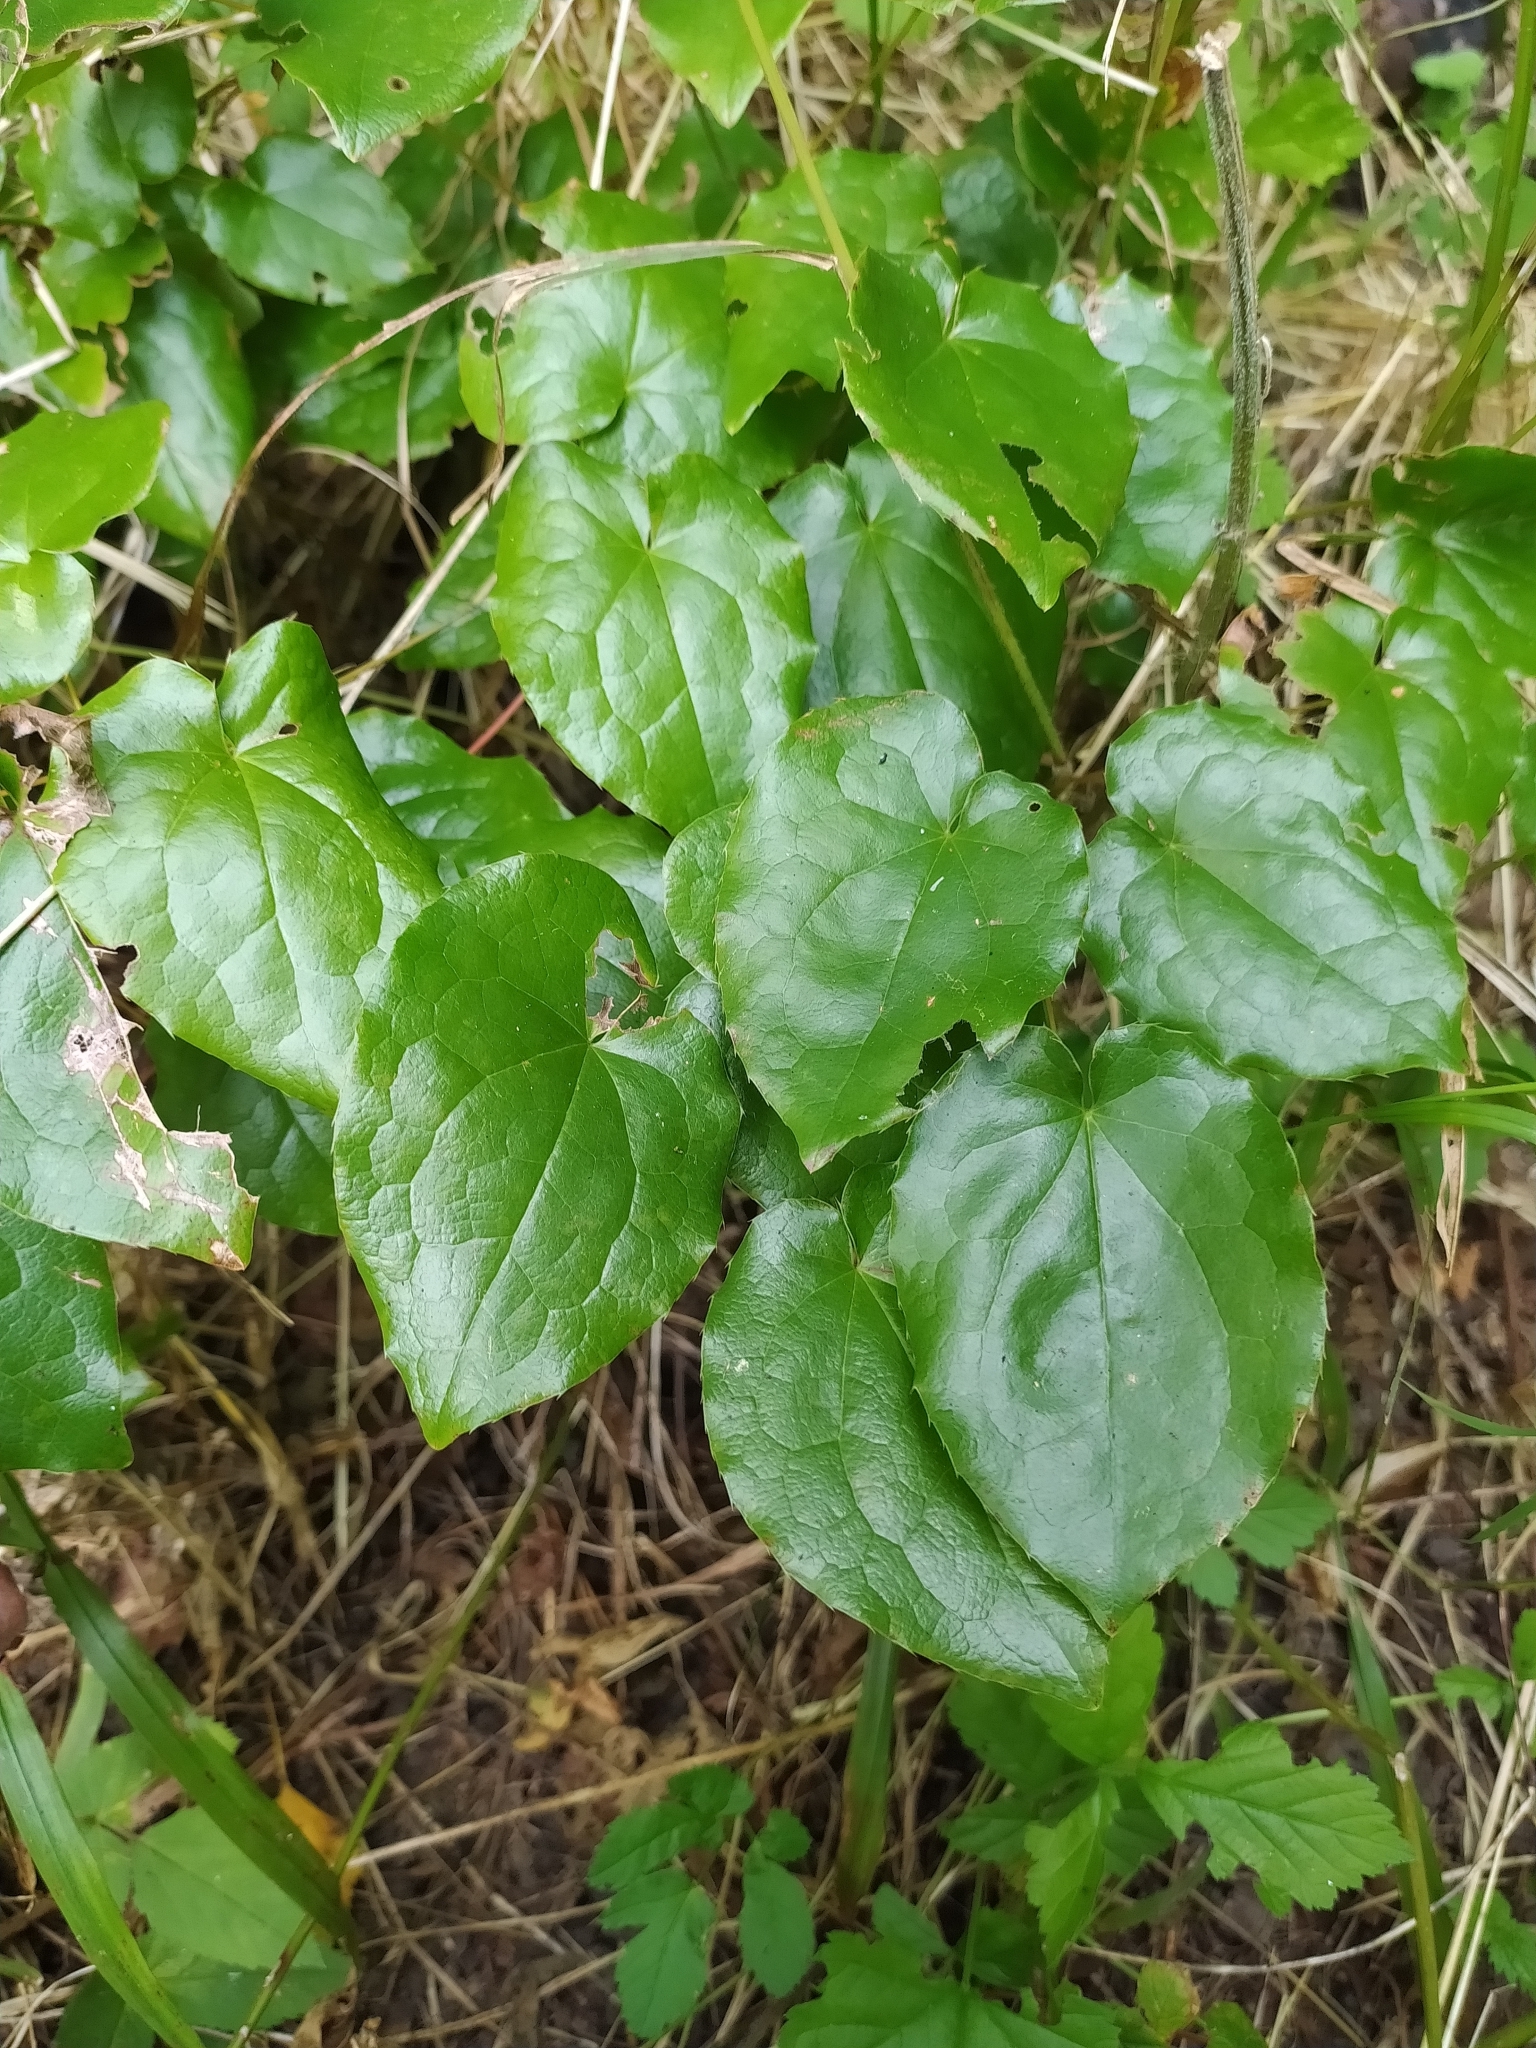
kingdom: Plantae
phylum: Tracheophyta
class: Magnoliopsida
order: Ranunculales
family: Berberidaceae
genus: Epimedium
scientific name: Epimedium alpinum
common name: Barrenwort
